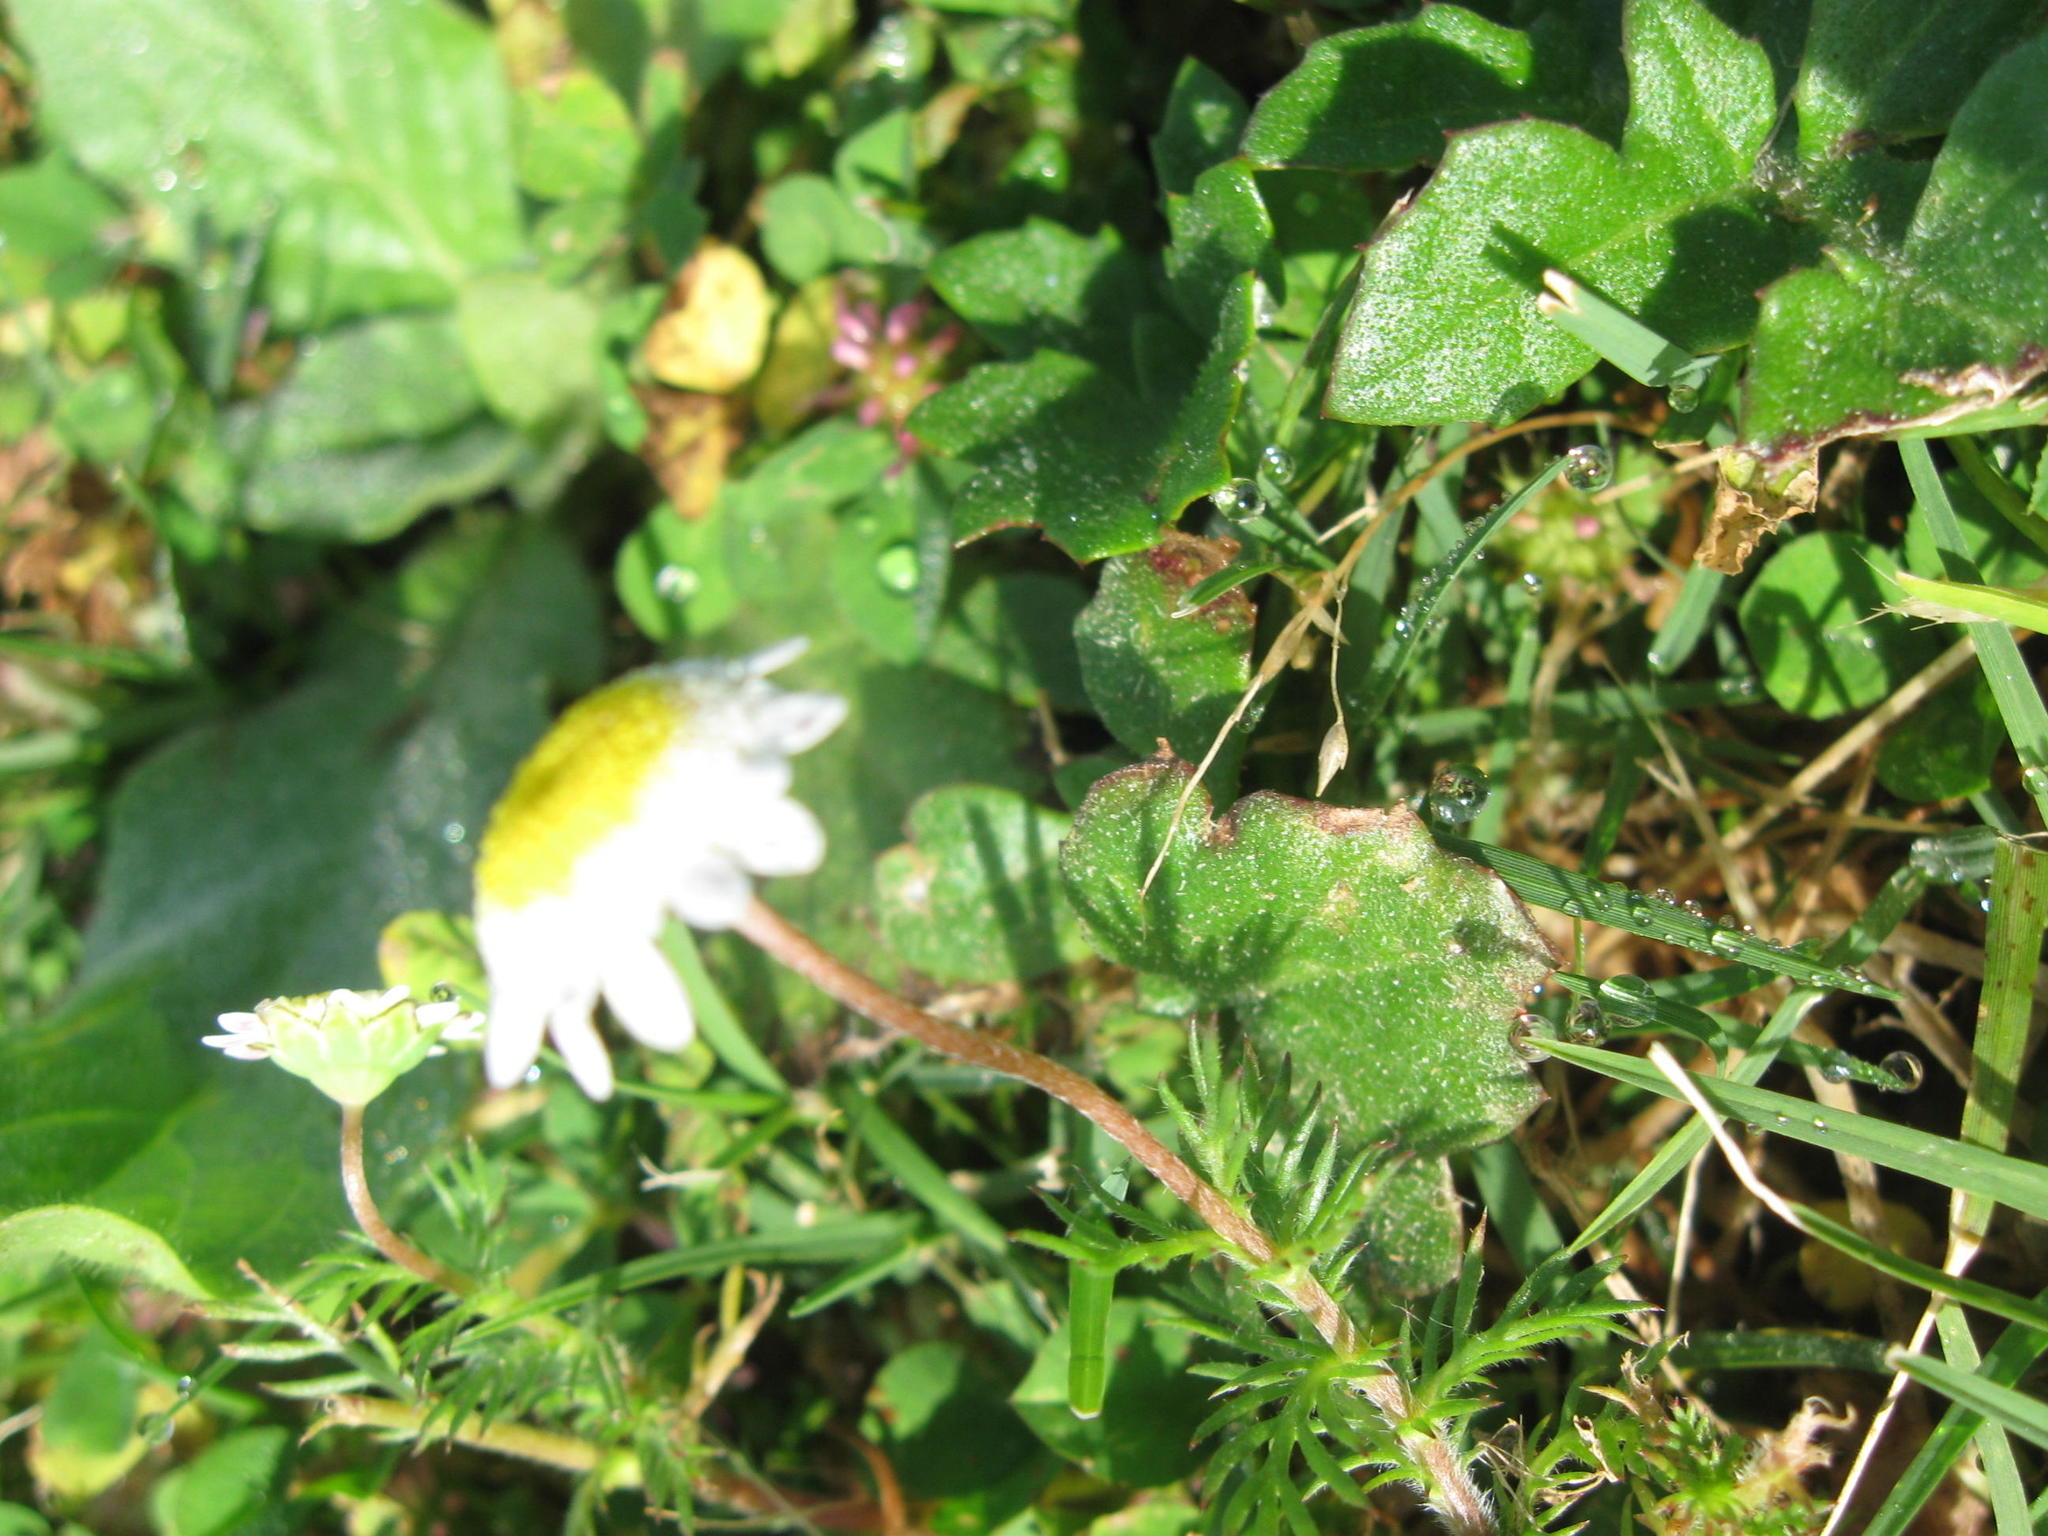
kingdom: Plantae
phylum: Tracheophyta
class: Magnoliopsida
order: Asterales
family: Asteraceae
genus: Cotula
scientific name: Cotula turbinata
